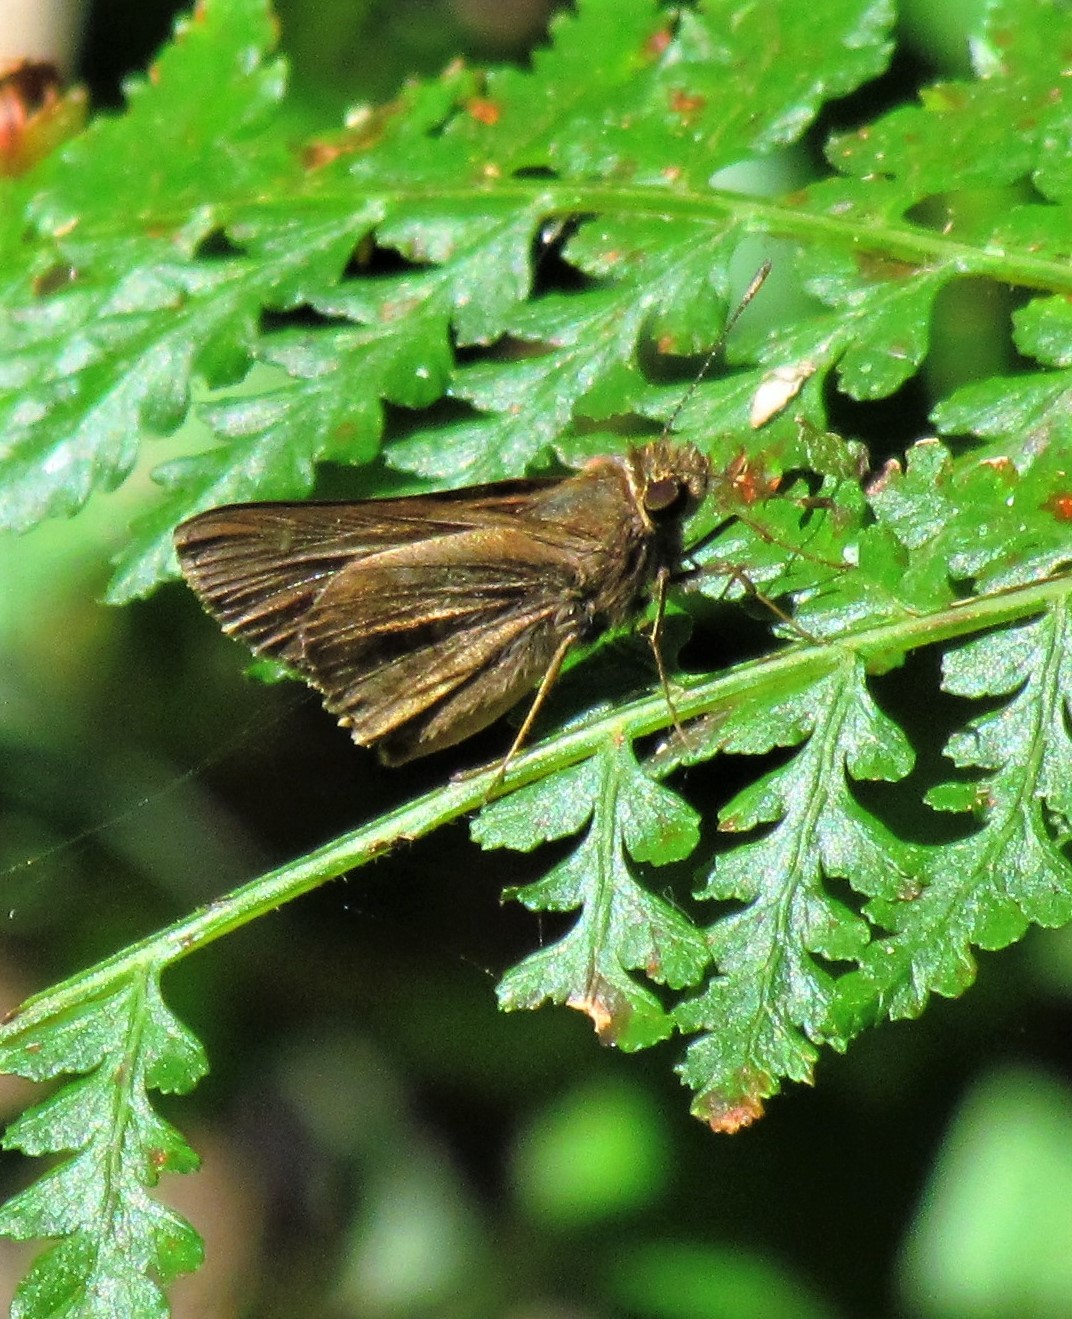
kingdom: Animalia
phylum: Arthropoda
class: Insecta
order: Lepidoptera
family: Hesperiidae
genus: Cumbre
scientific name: Cumbre cumbre
